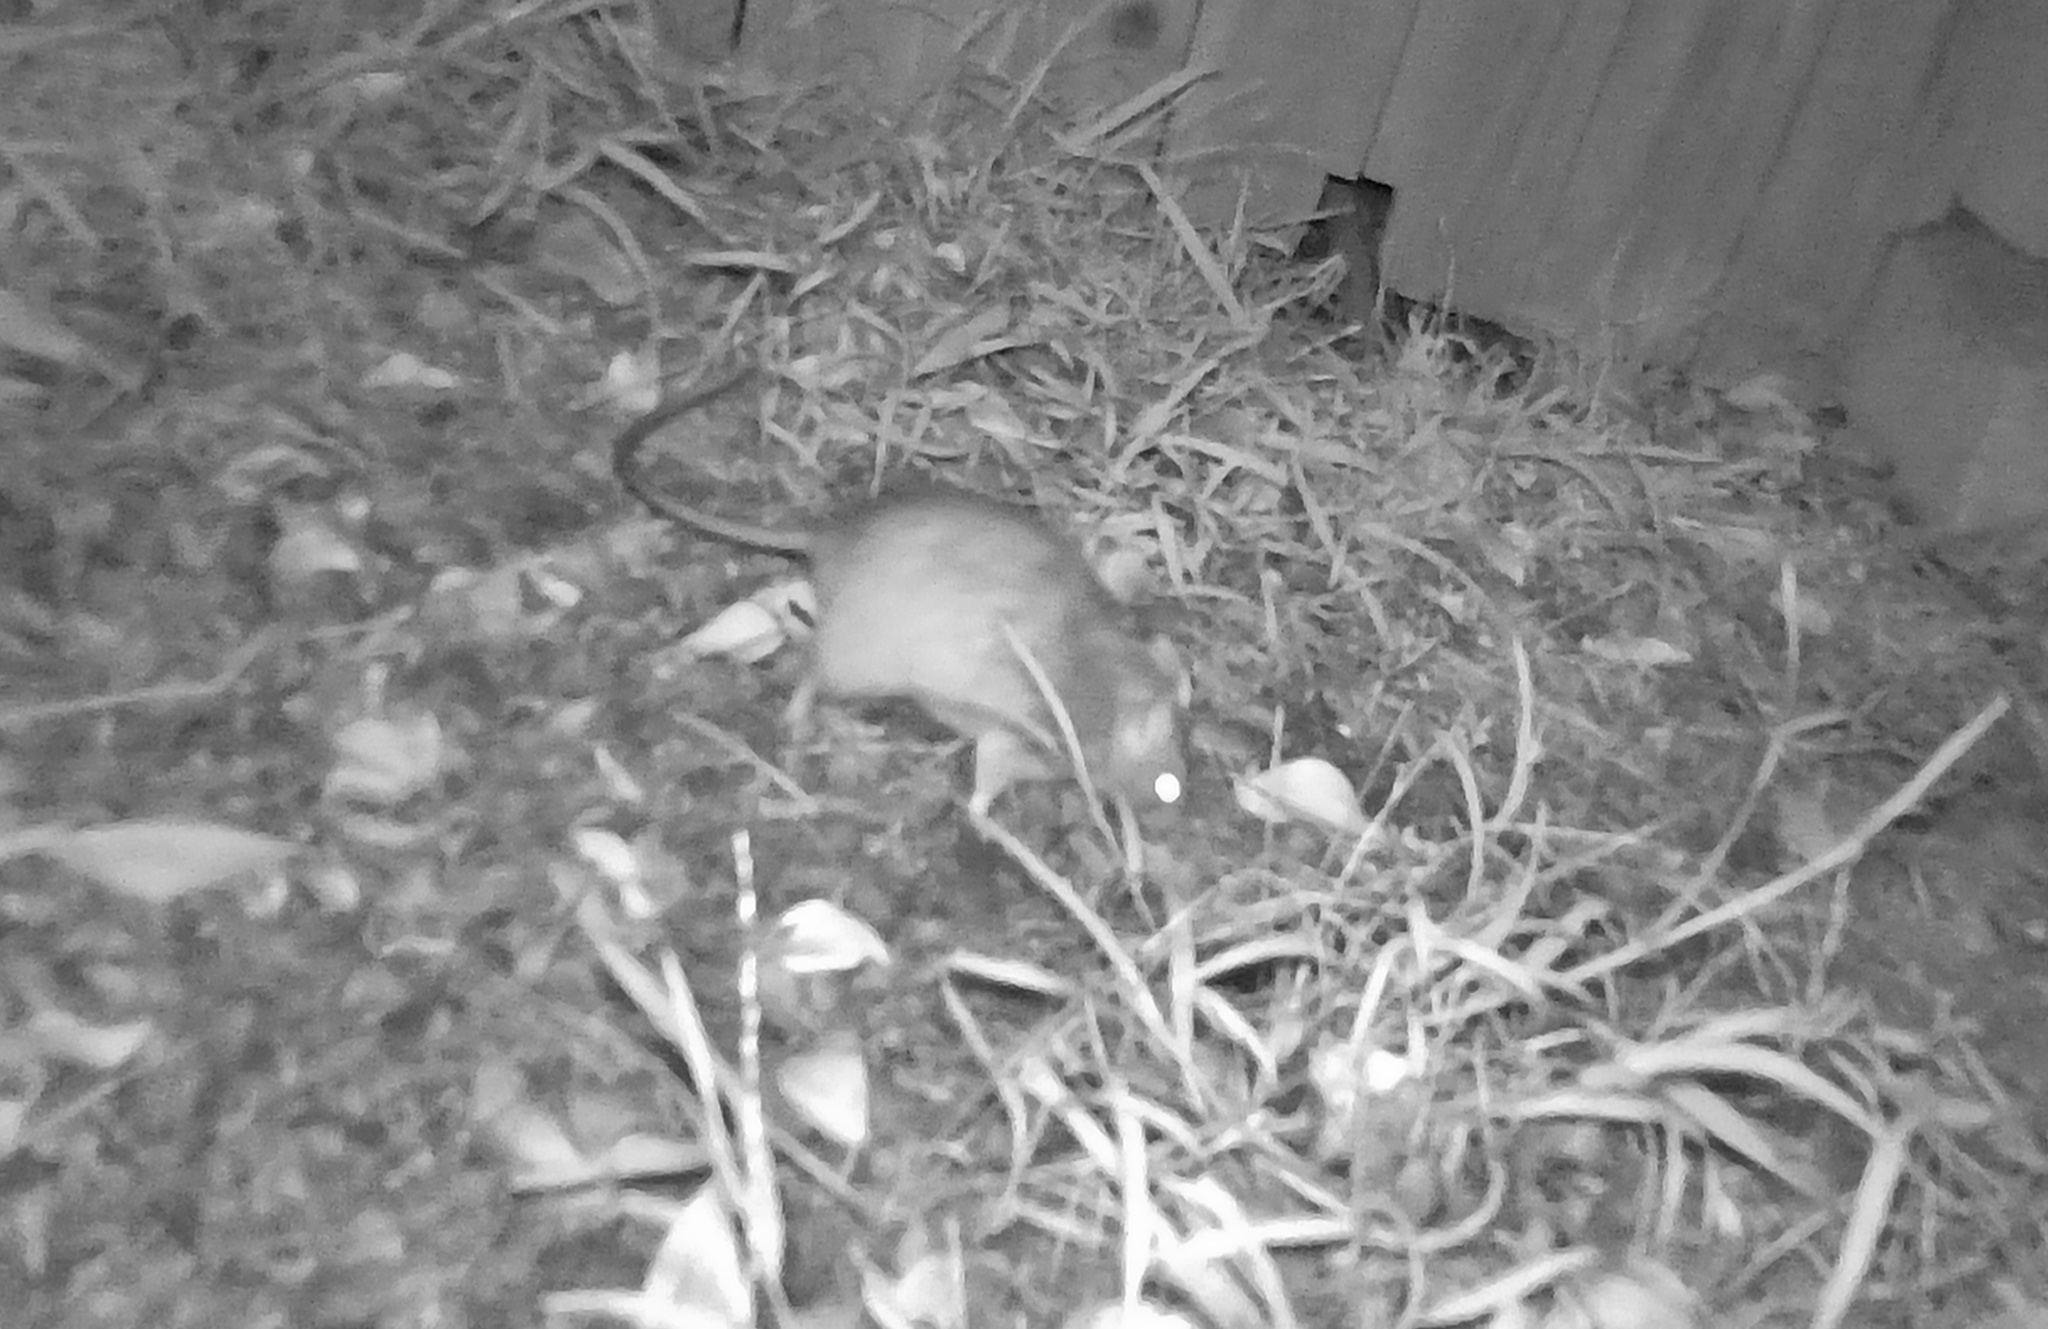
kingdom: Animalia
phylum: Chordata
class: Mammalia
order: Rodentia
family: Muridae
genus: Rattus
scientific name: Rattus rattus
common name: Black rat
